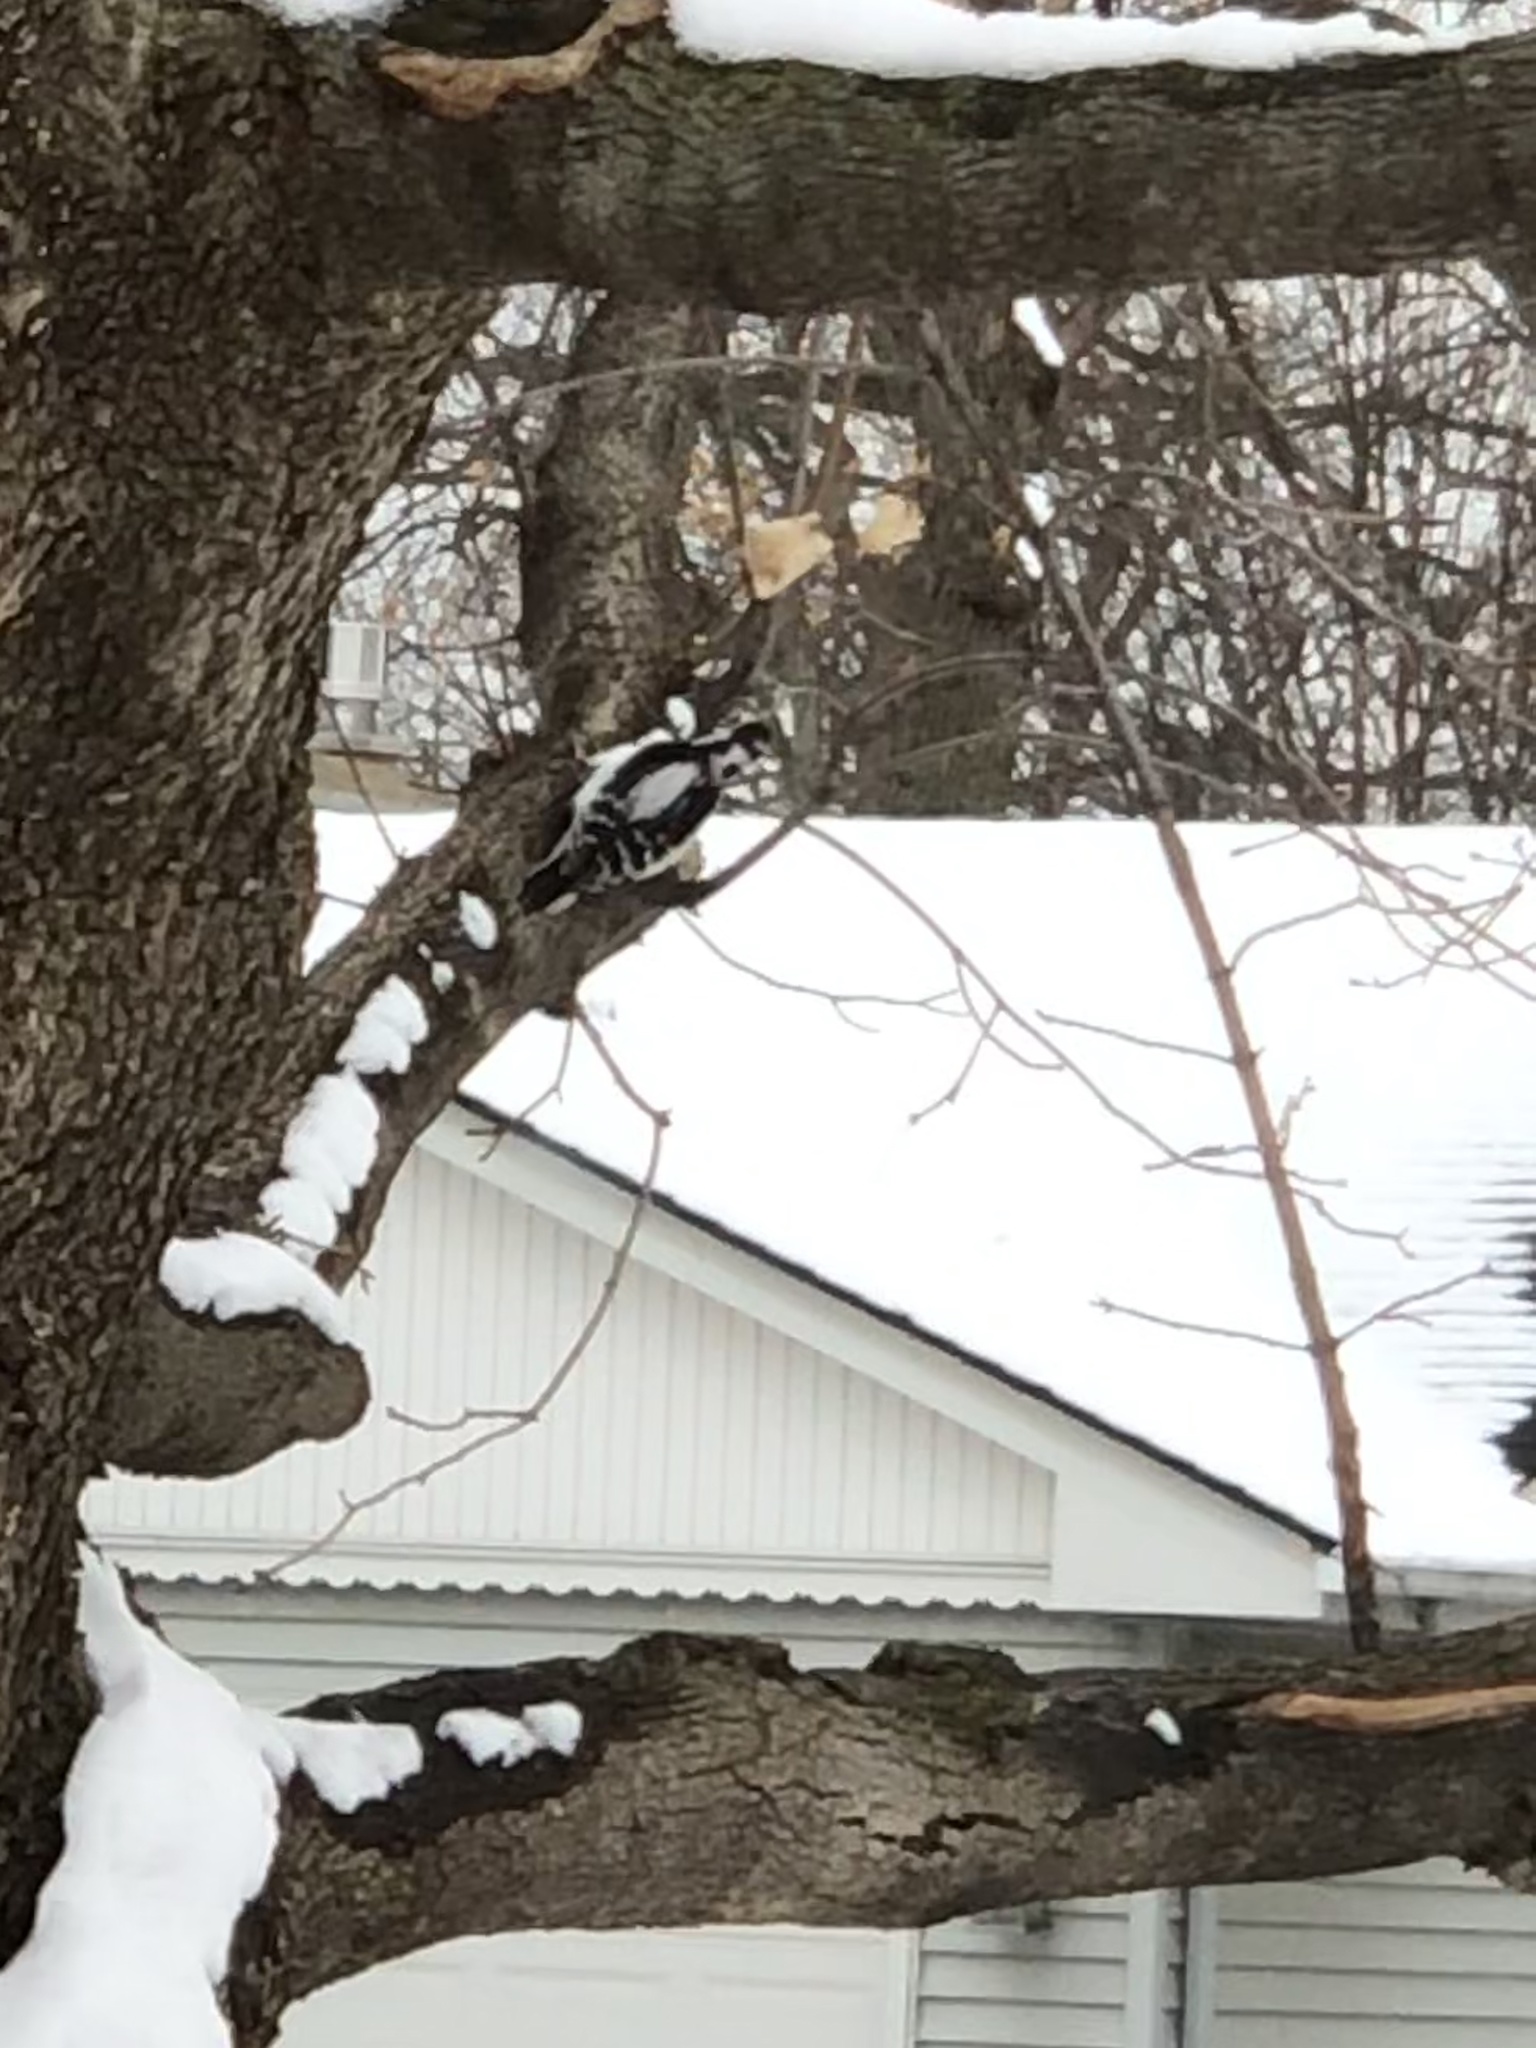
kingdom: Animalia
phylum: Chordata
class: Aves
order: Piciformes
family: Picidae
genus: Dryobates
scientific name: Dryobates pubescens
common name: Downy woodpecker
